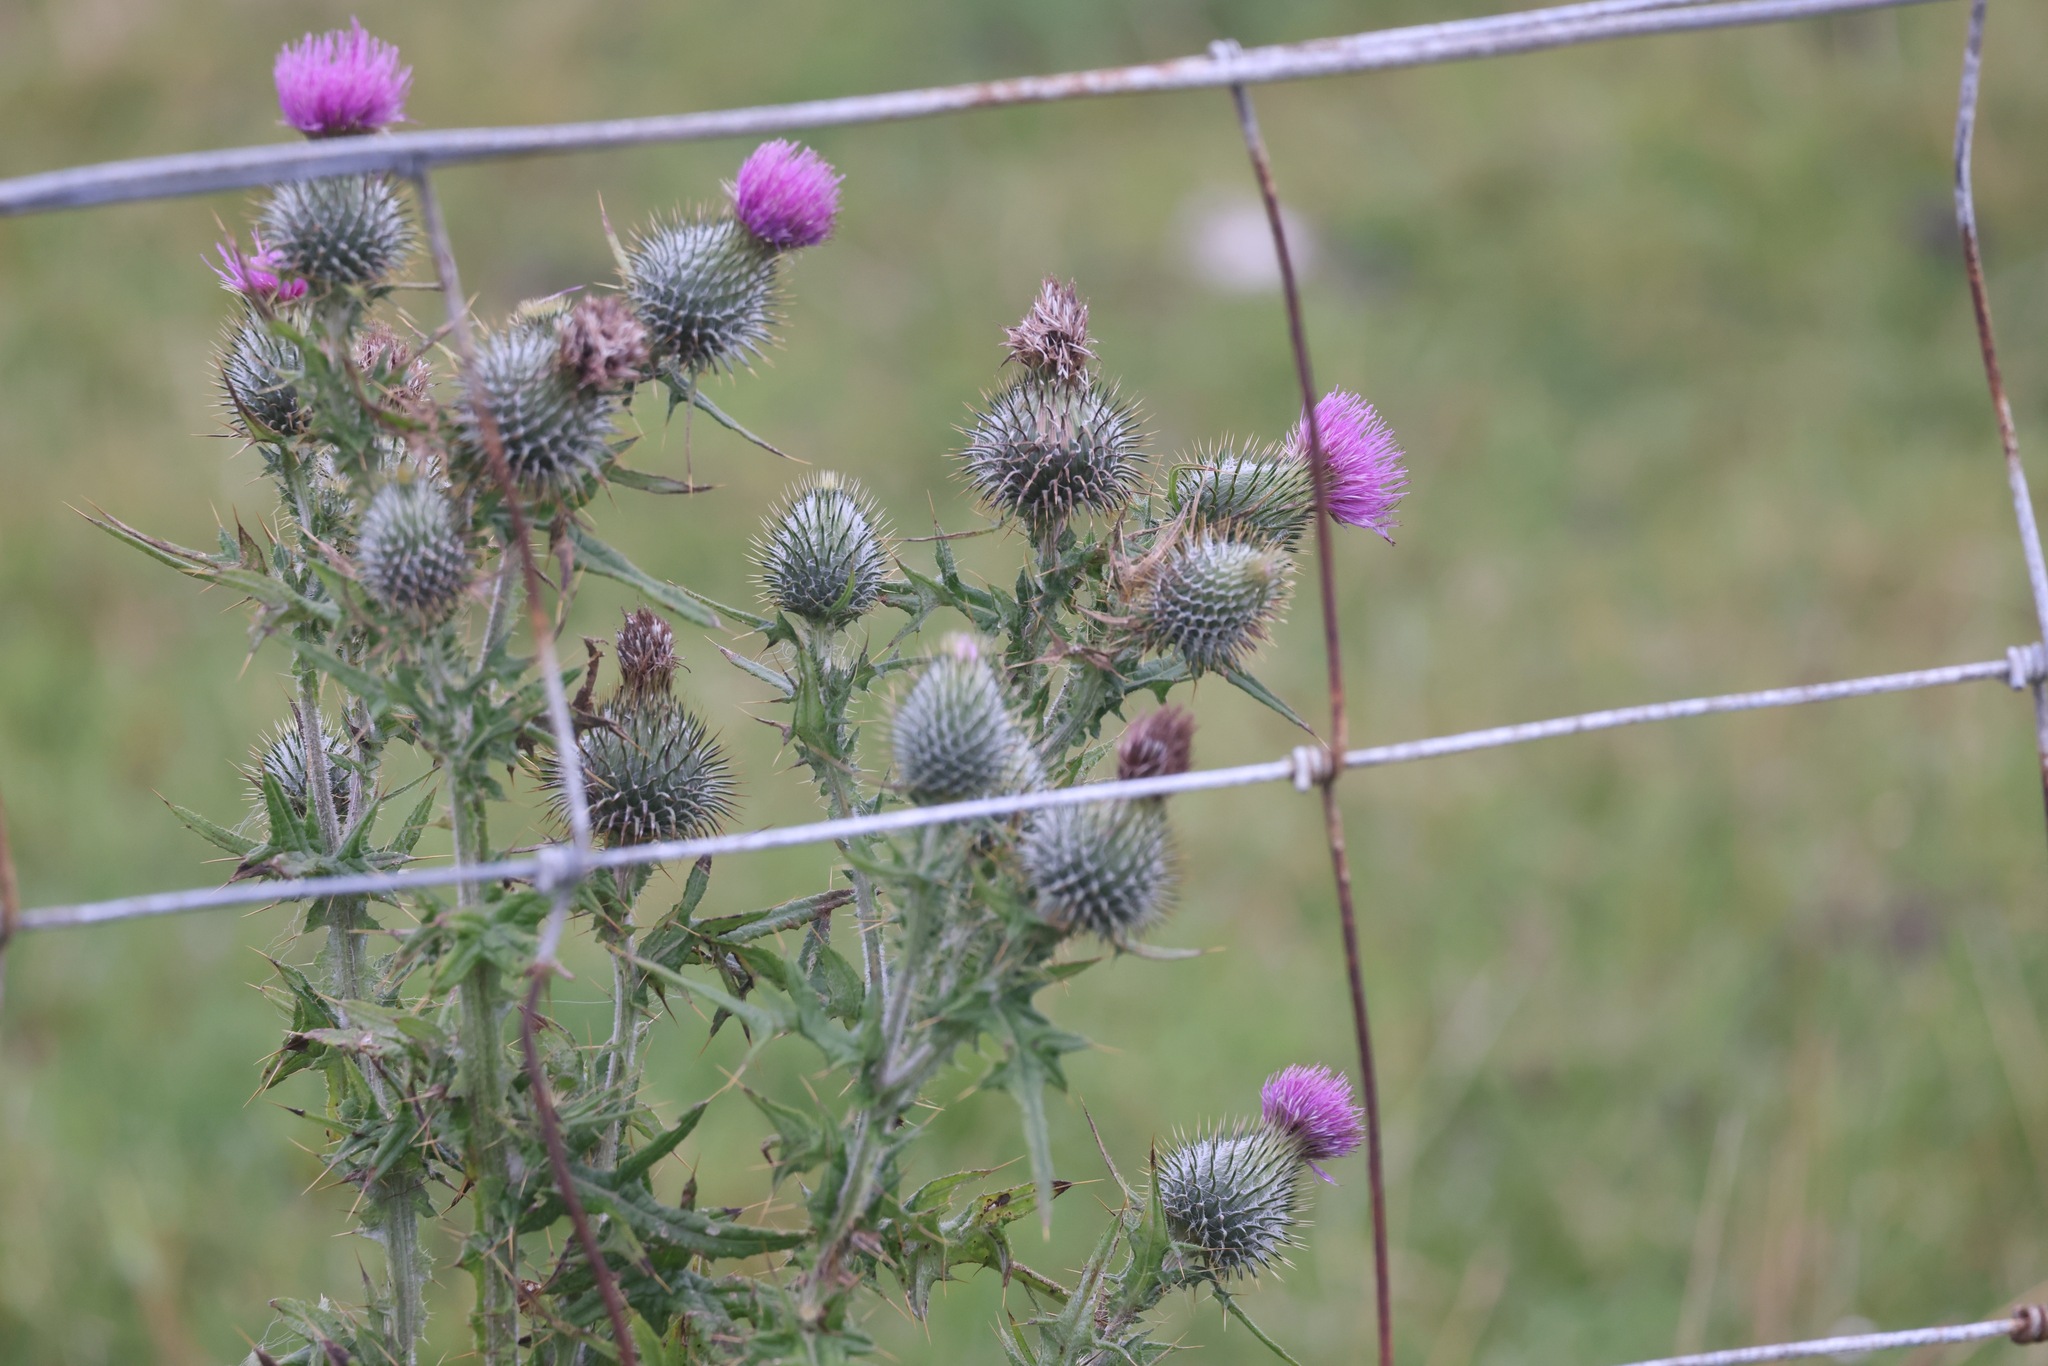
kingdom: Plantae
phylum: Tracheophyta
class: Magnoliopsida
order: Asterales
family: Asteraceae
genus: Cirsium
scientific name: Cirsium vulgare
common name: Bull thistle
